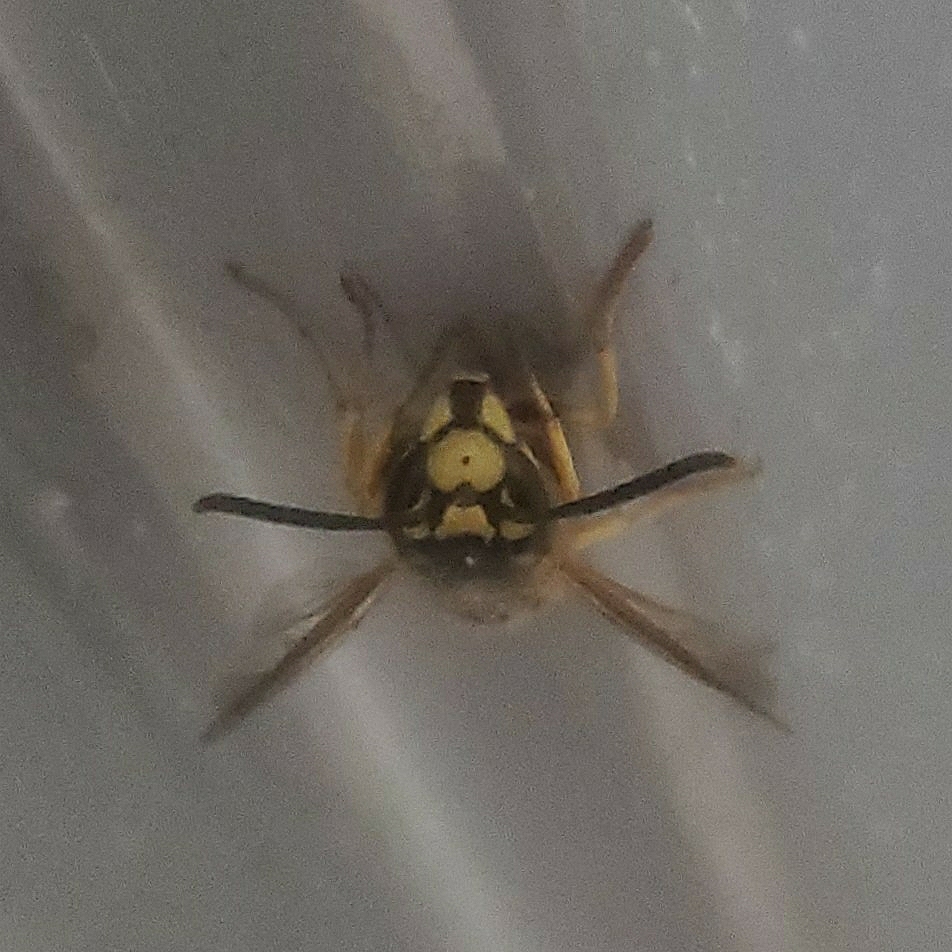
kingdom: Animalia
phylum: Arthropoda
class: Insecta
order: Hymenoptera
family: Vespidae
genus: Vespula
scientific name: Vespula germanica
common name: German wasp
